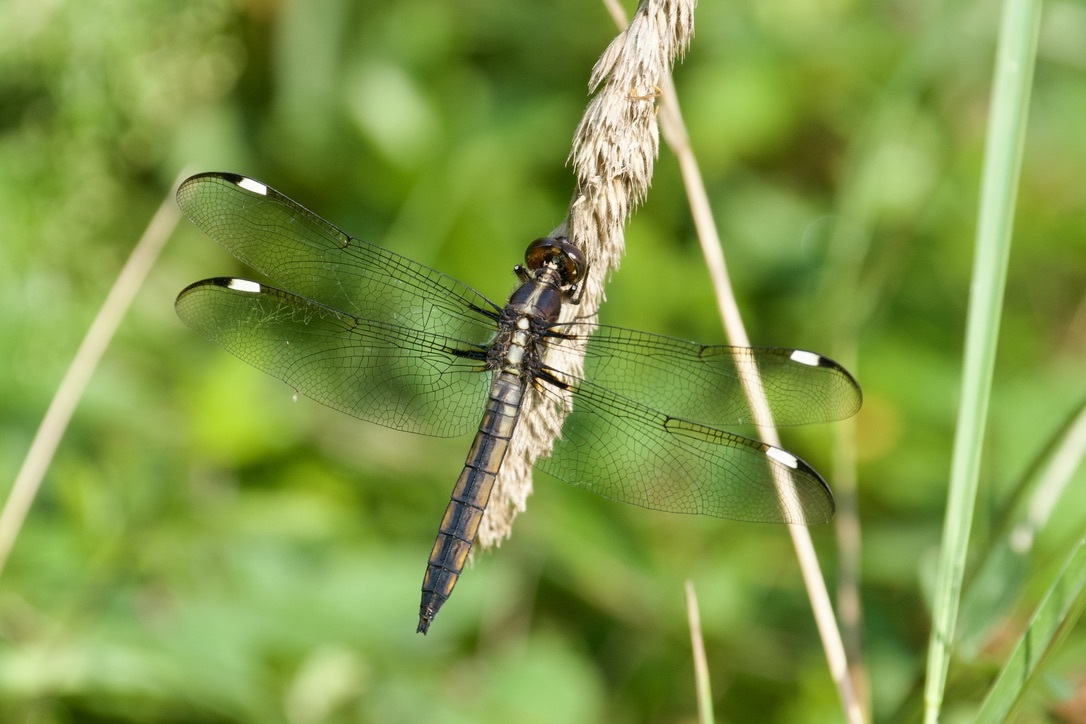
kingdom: Animalia
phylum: Arthropoda
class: Insecta
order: Odonata
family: Libellulidae
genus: Libellula
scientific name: Libellula cyanea
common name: Spangled skimmer
